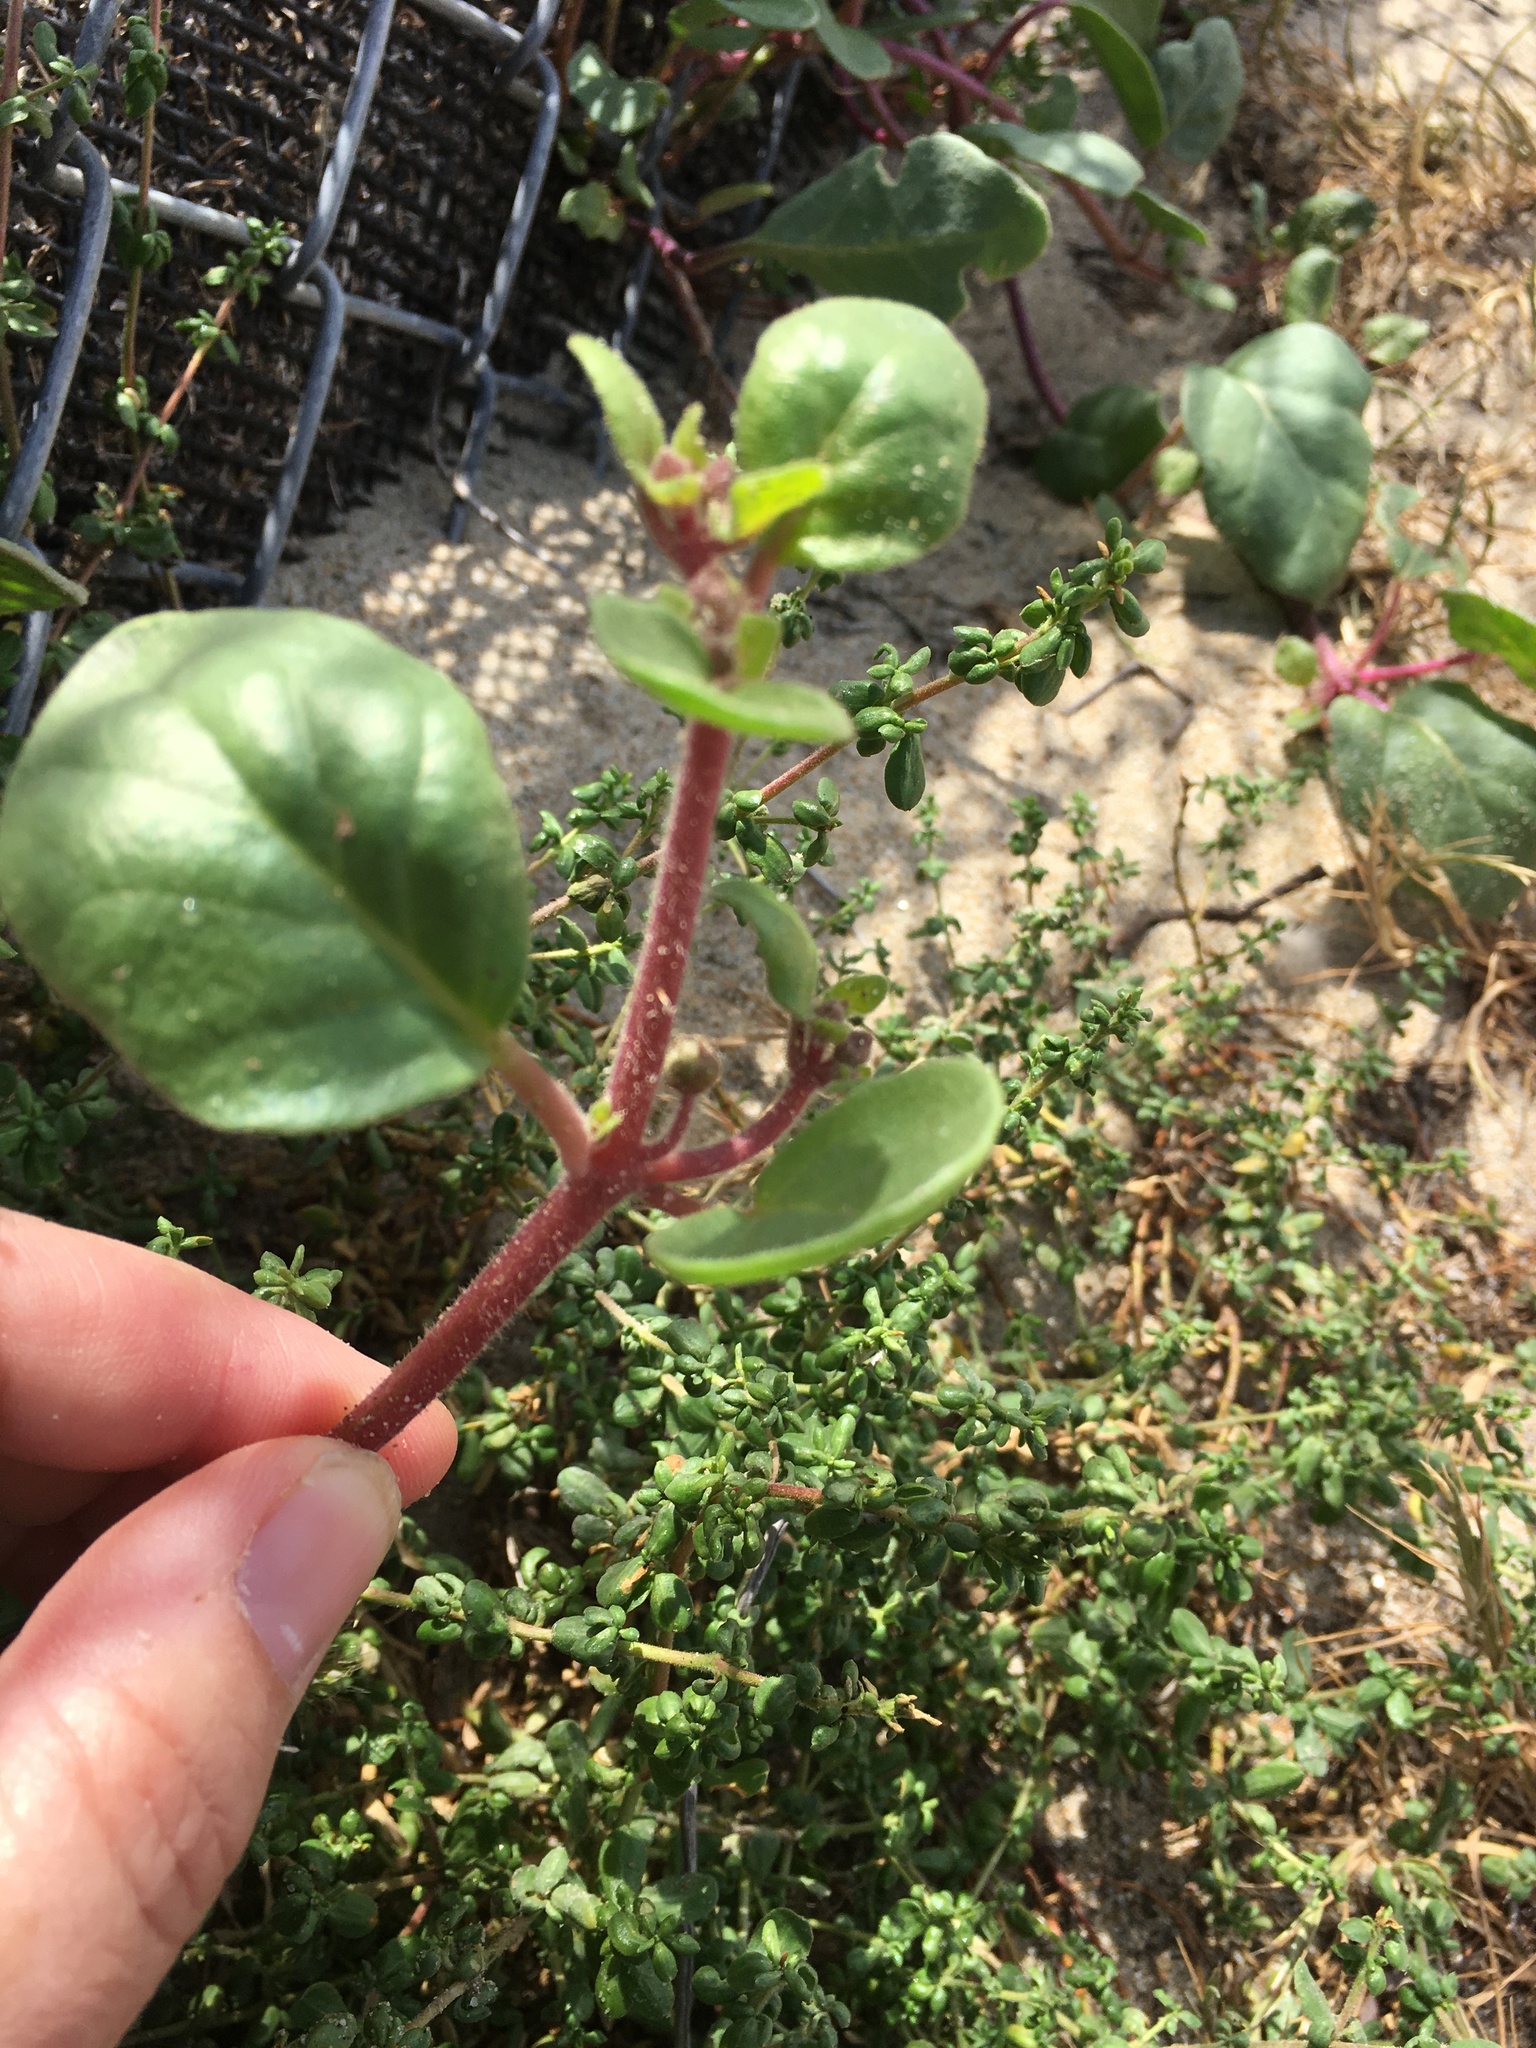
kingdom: Plantae
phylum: Tracheophyta
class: Magnoliopsida
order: Caryophyllales
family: Nyctaginaceae
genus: Abronia
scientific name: Abronia umbellata
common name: Sand-verbena
